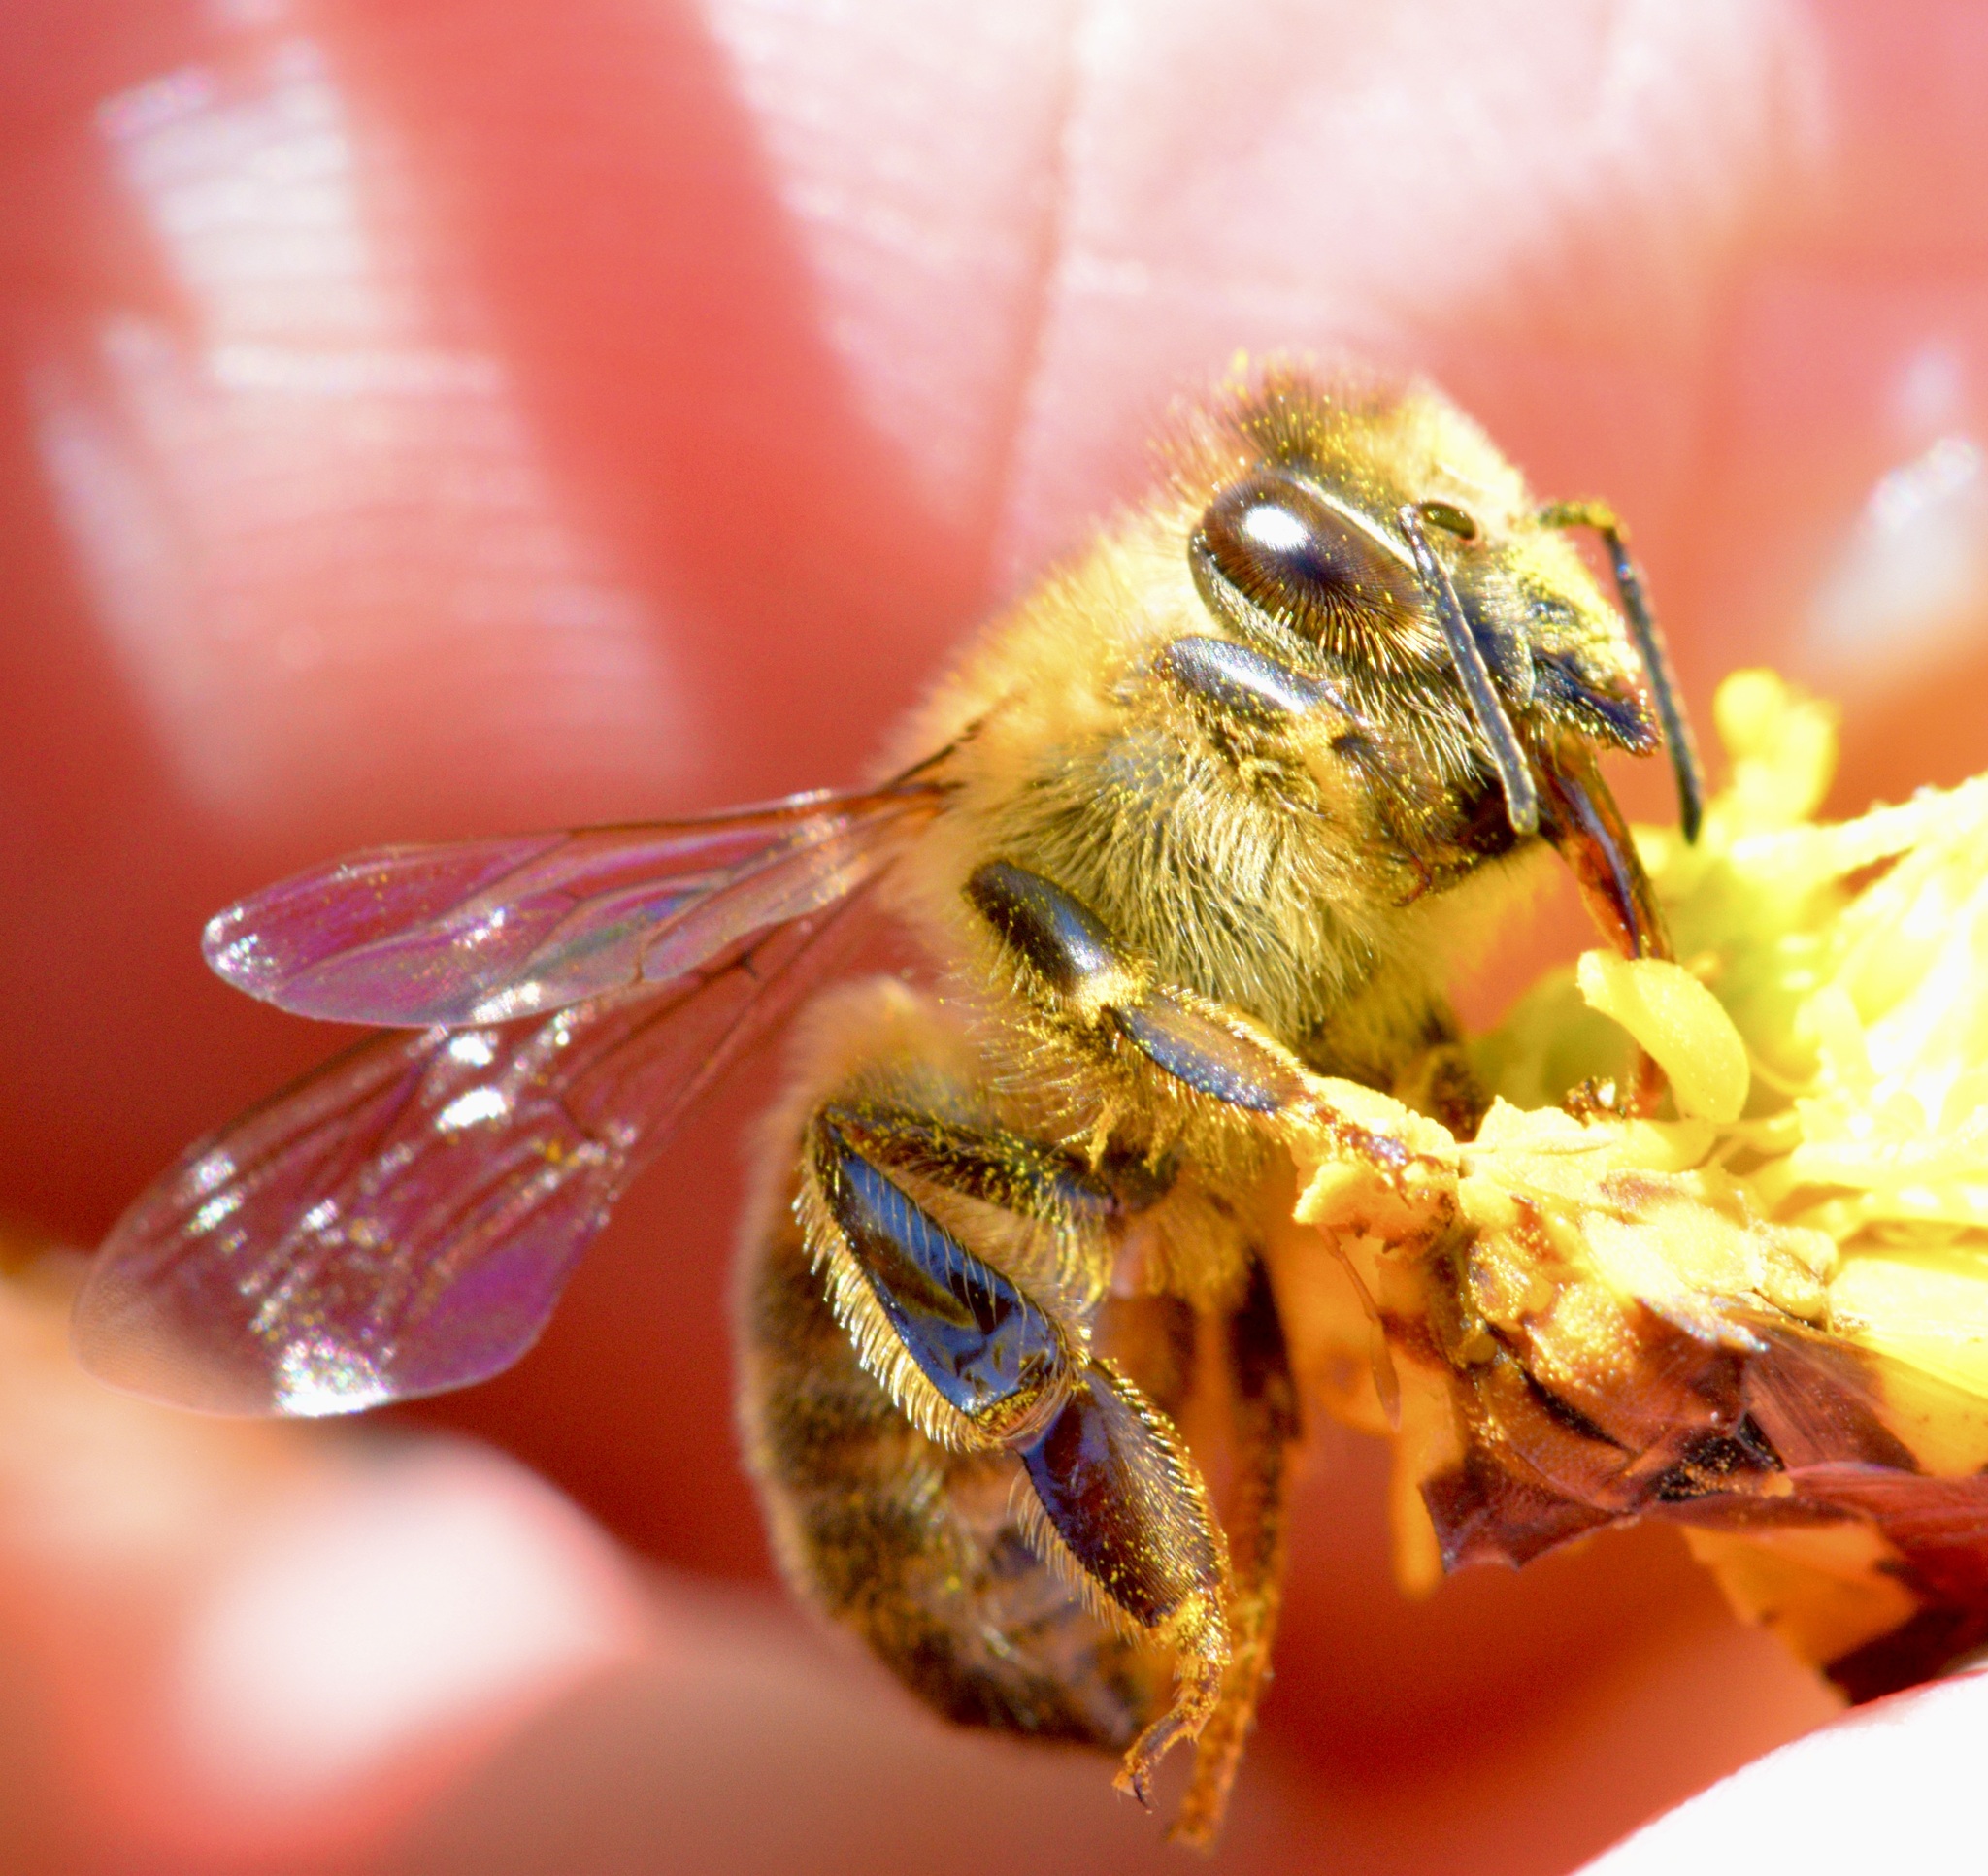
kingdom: Animalia
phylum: Arthropoda
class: Insecta
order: Hymenoptera
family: Apidae
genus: Apis
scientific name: Apis mellifera
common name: Honey bee
